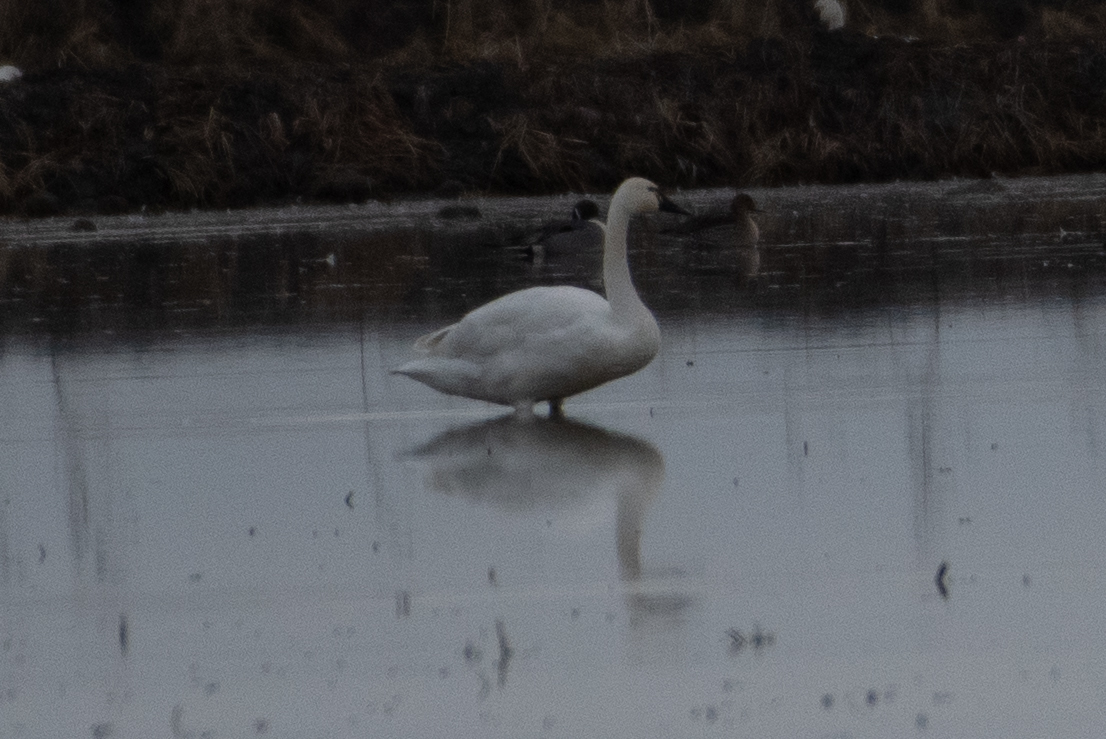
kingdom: Animalia
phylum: Chordata
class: Aves
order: Anseriformes
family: Anatidae
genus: Cygnus
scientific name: Cygnus columbianus
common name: Tundra swan
